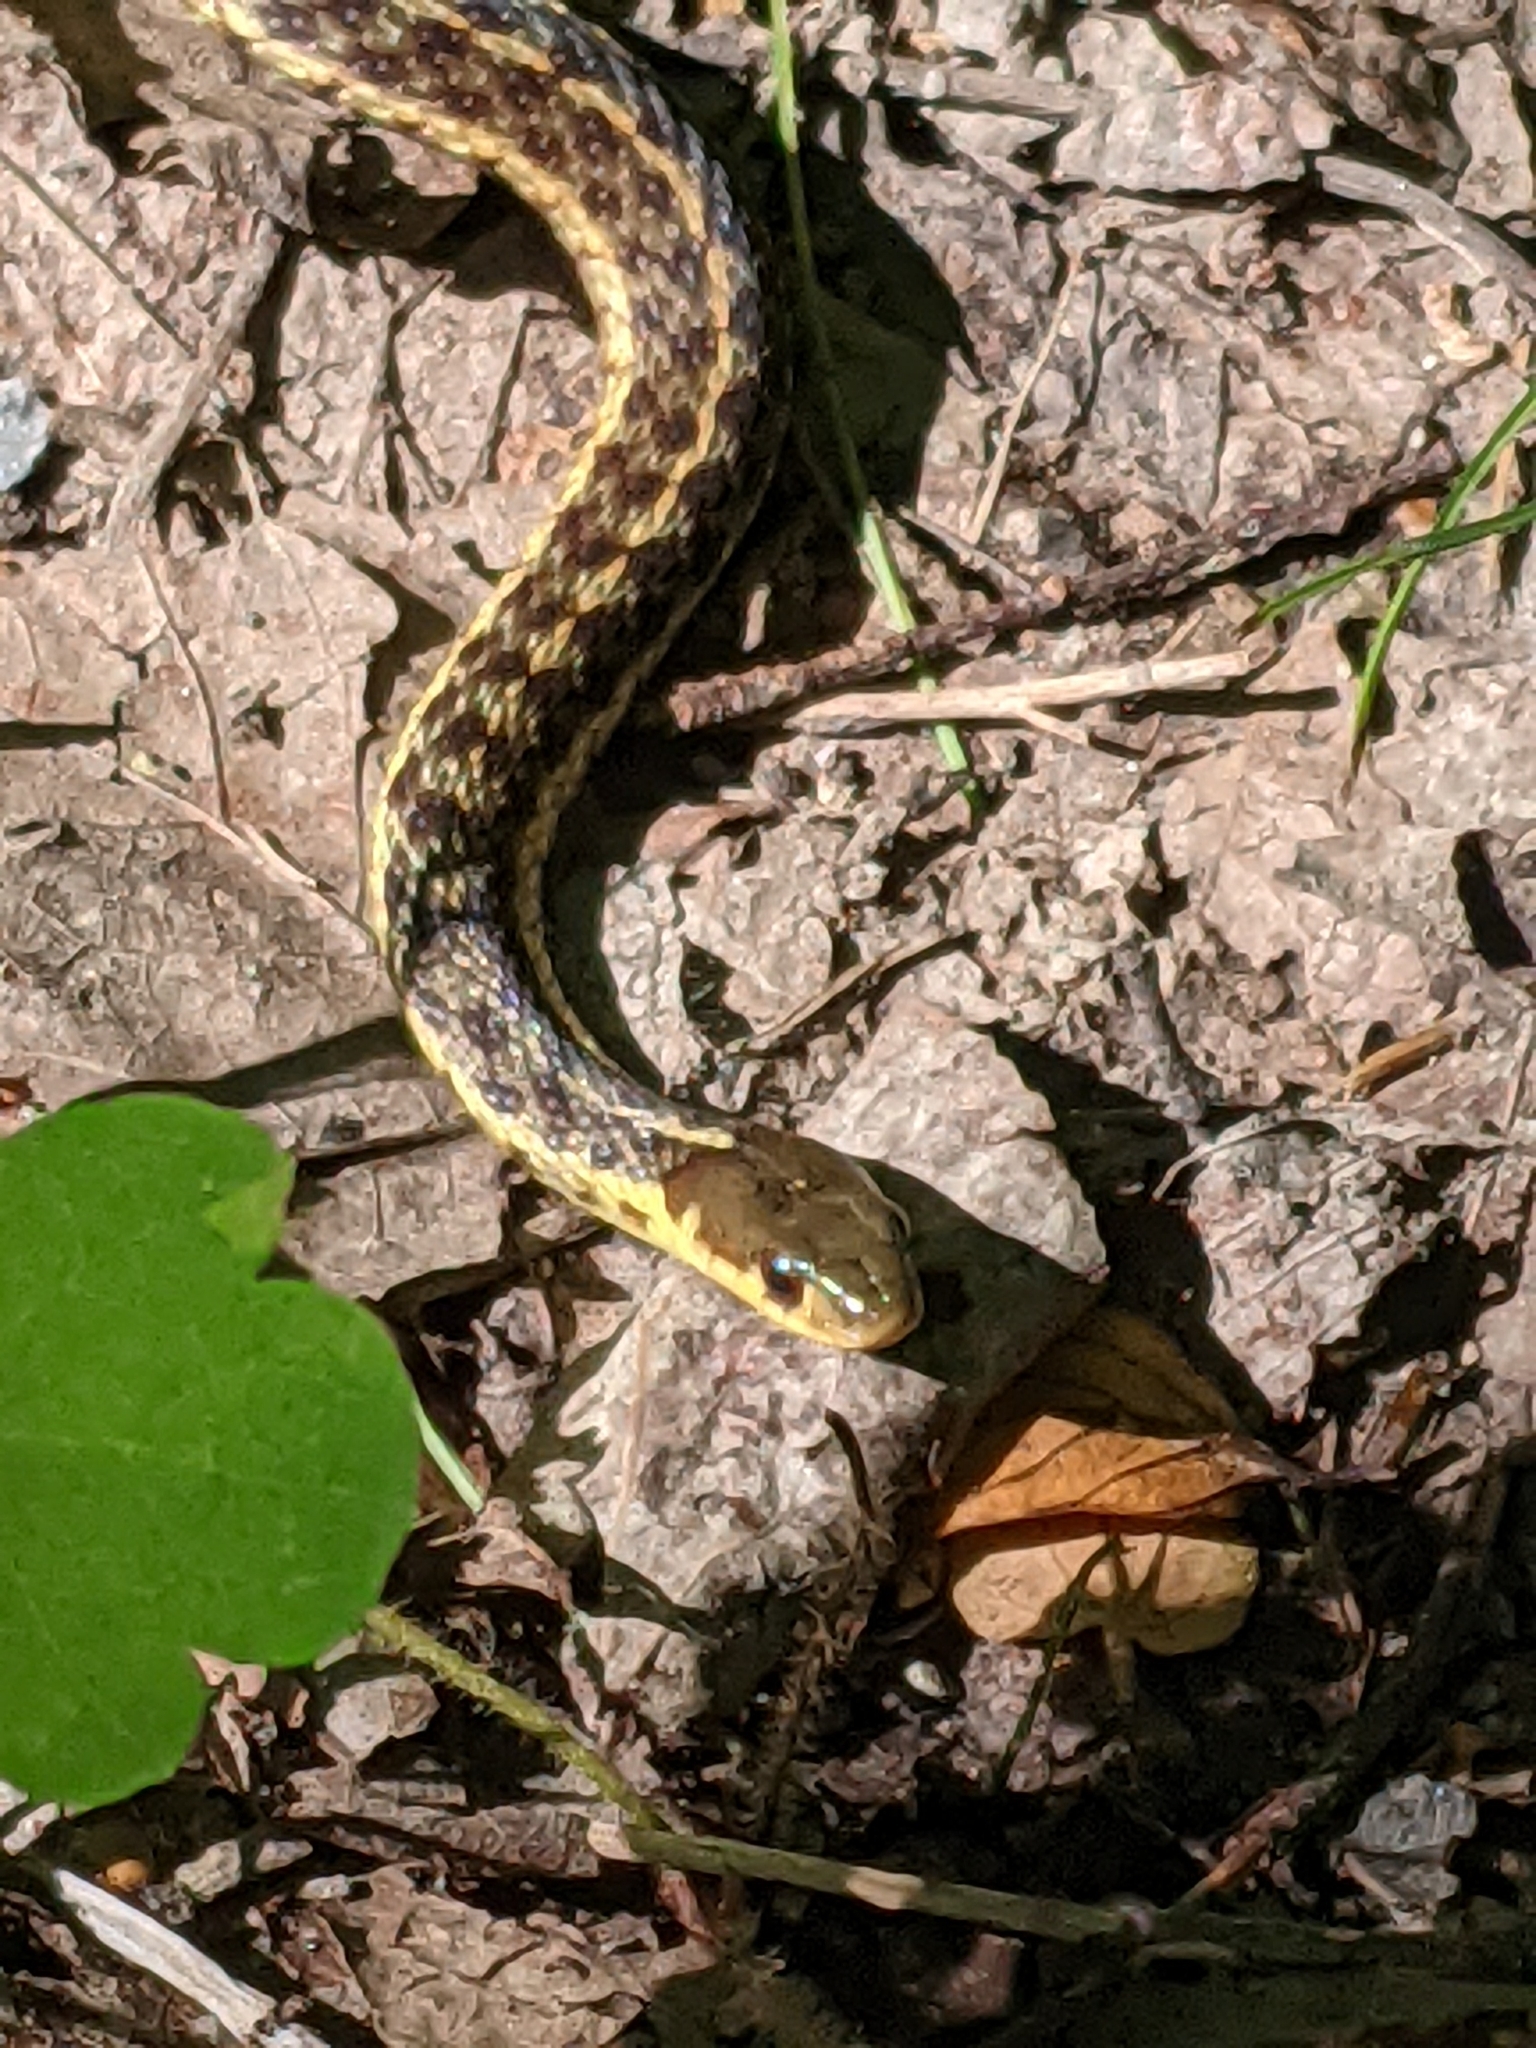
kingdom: Animalia
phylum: Chordata
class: Squamata
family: Colubridae
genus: Thamnophis
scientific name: Thamnophis sirtalis
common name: Common garter snake
